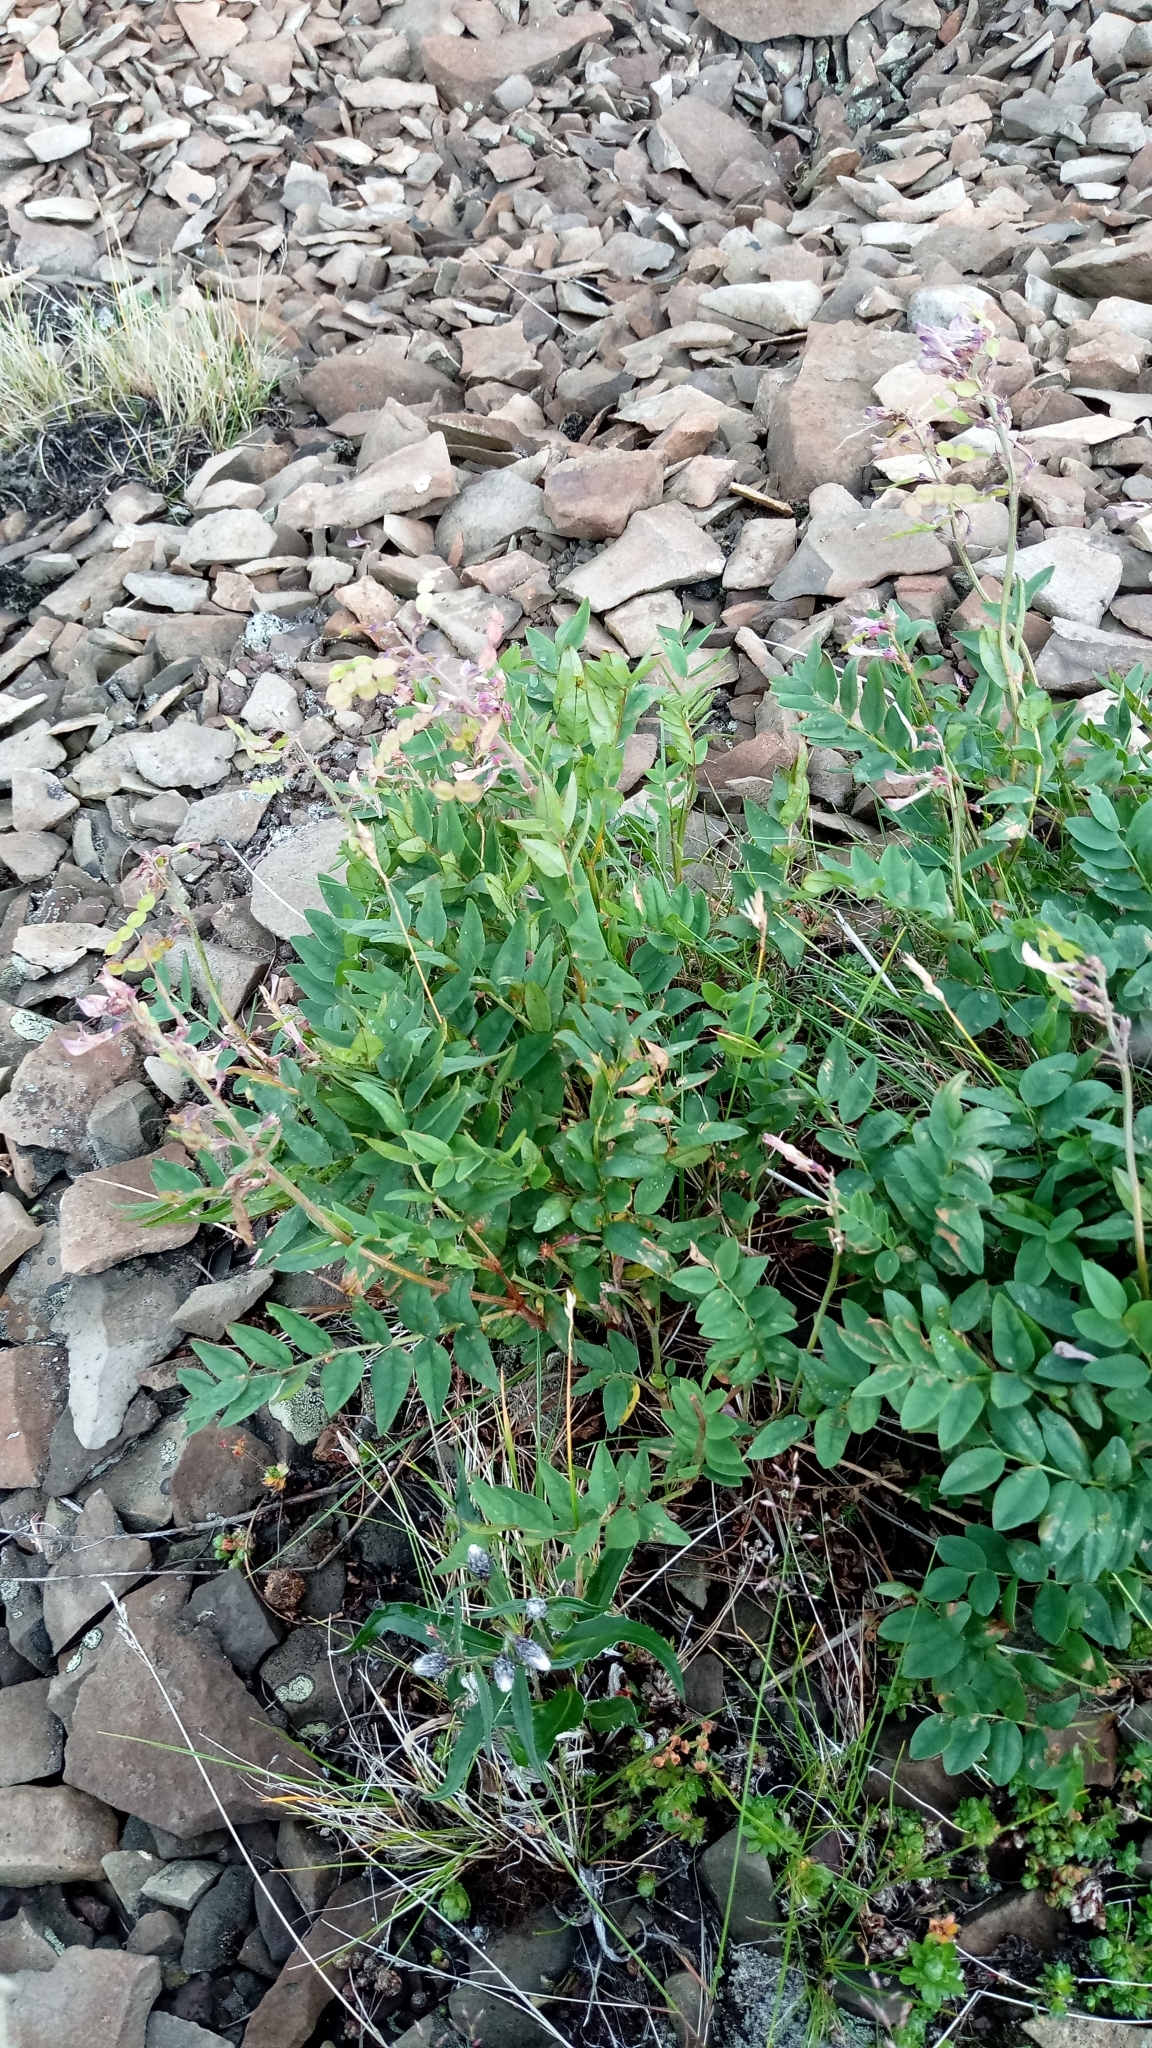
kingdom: Plantae
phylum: Tracheophyta
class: Magnoliopsida
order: Fabales
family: Fabaceae
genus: Hedysarum
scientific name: Hedysarum hedysaroides
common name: Alpine french-honeysuckle
